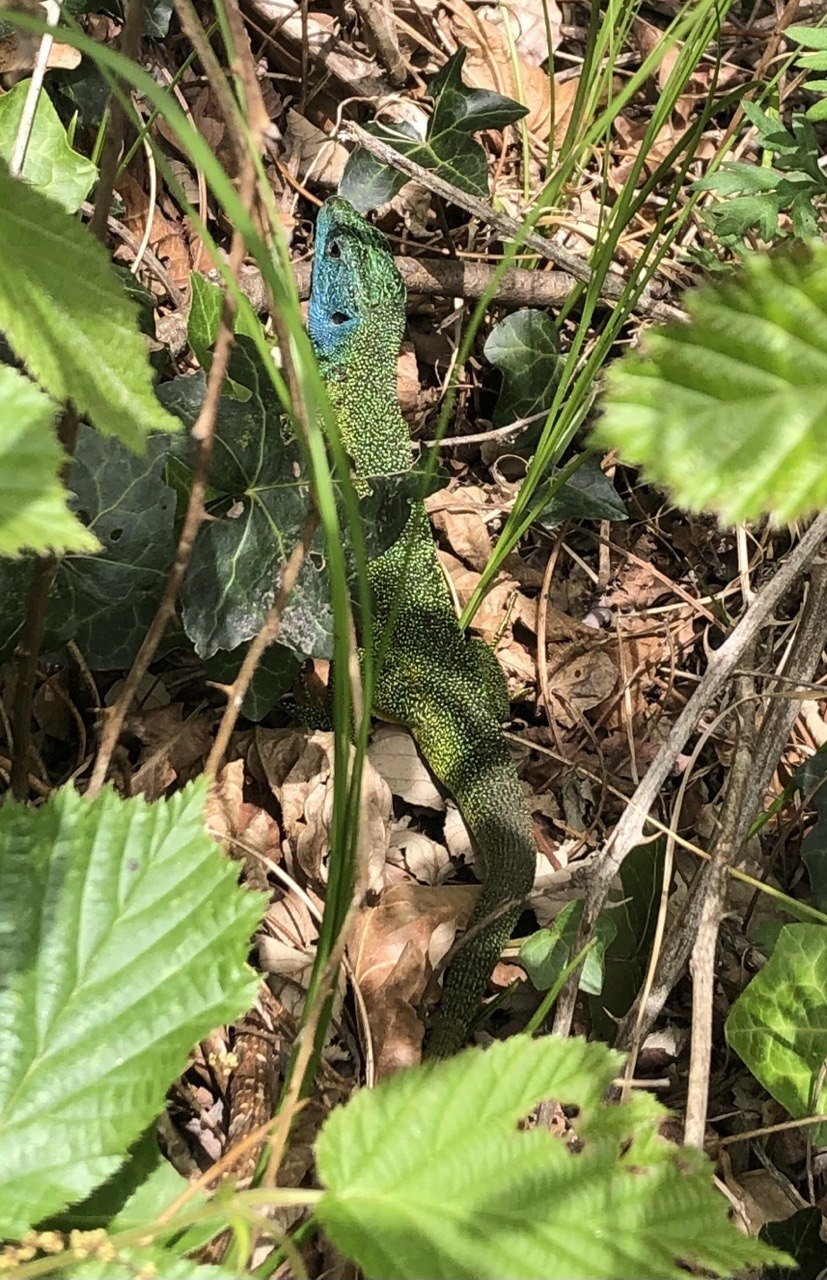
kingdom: Animalia
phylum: Chordata
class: Squamata
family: Lacertidae
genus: Lacerta
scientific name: Lacerta bilineata
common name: Western green lizard
